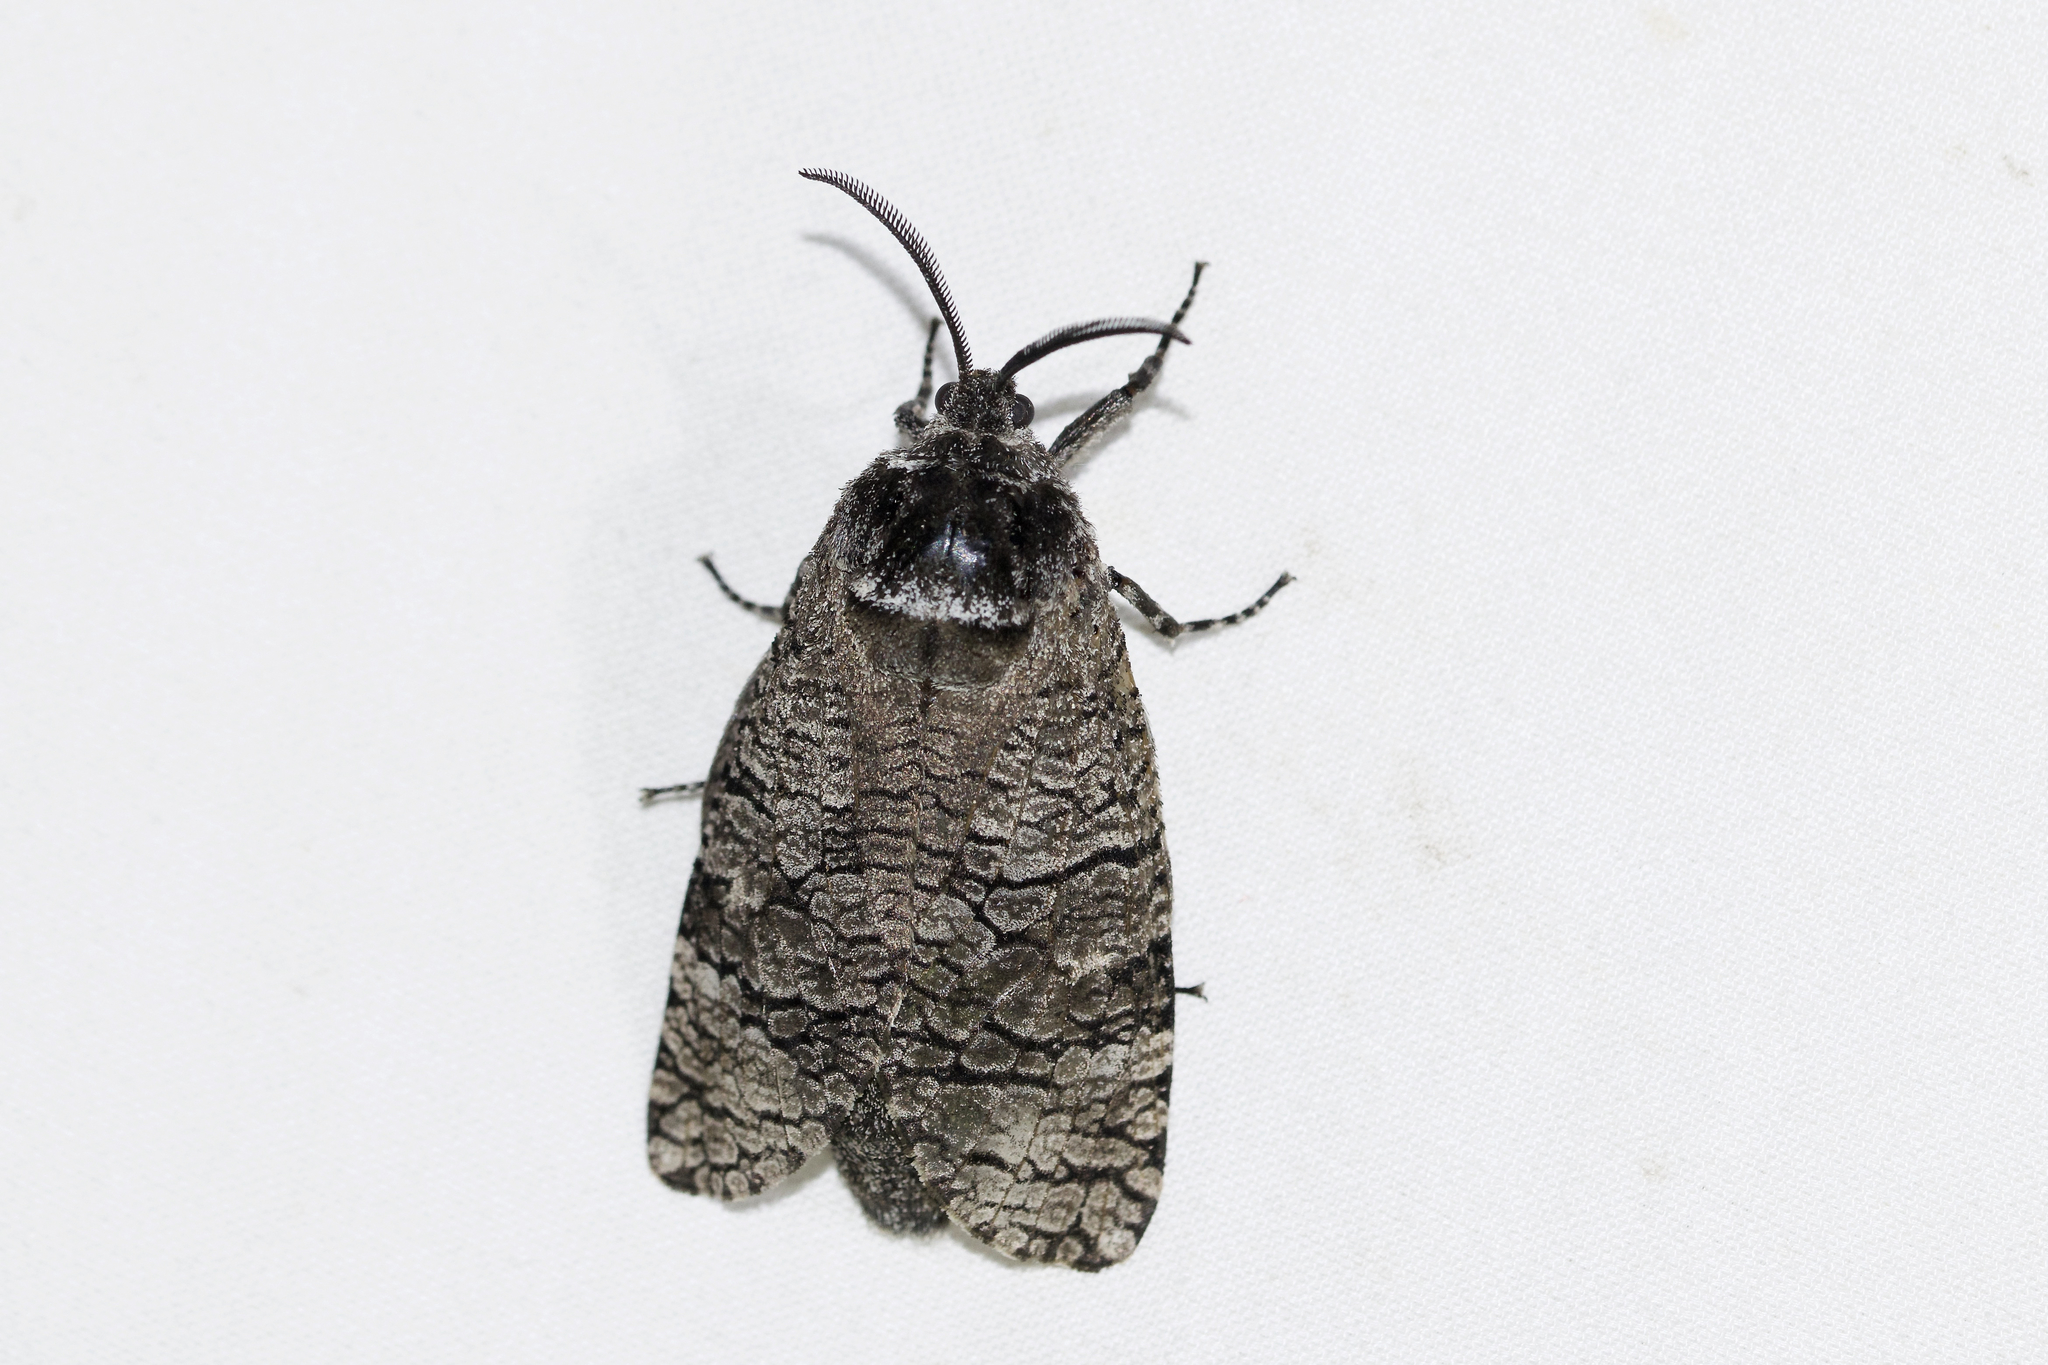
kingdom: Animalia
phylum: Arthropoda
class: Insecta
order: Lepidoptera
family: Cossidae
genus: Prionoxystus
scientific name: Prionoxystus macmurtrei
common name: Little carpenterworm
